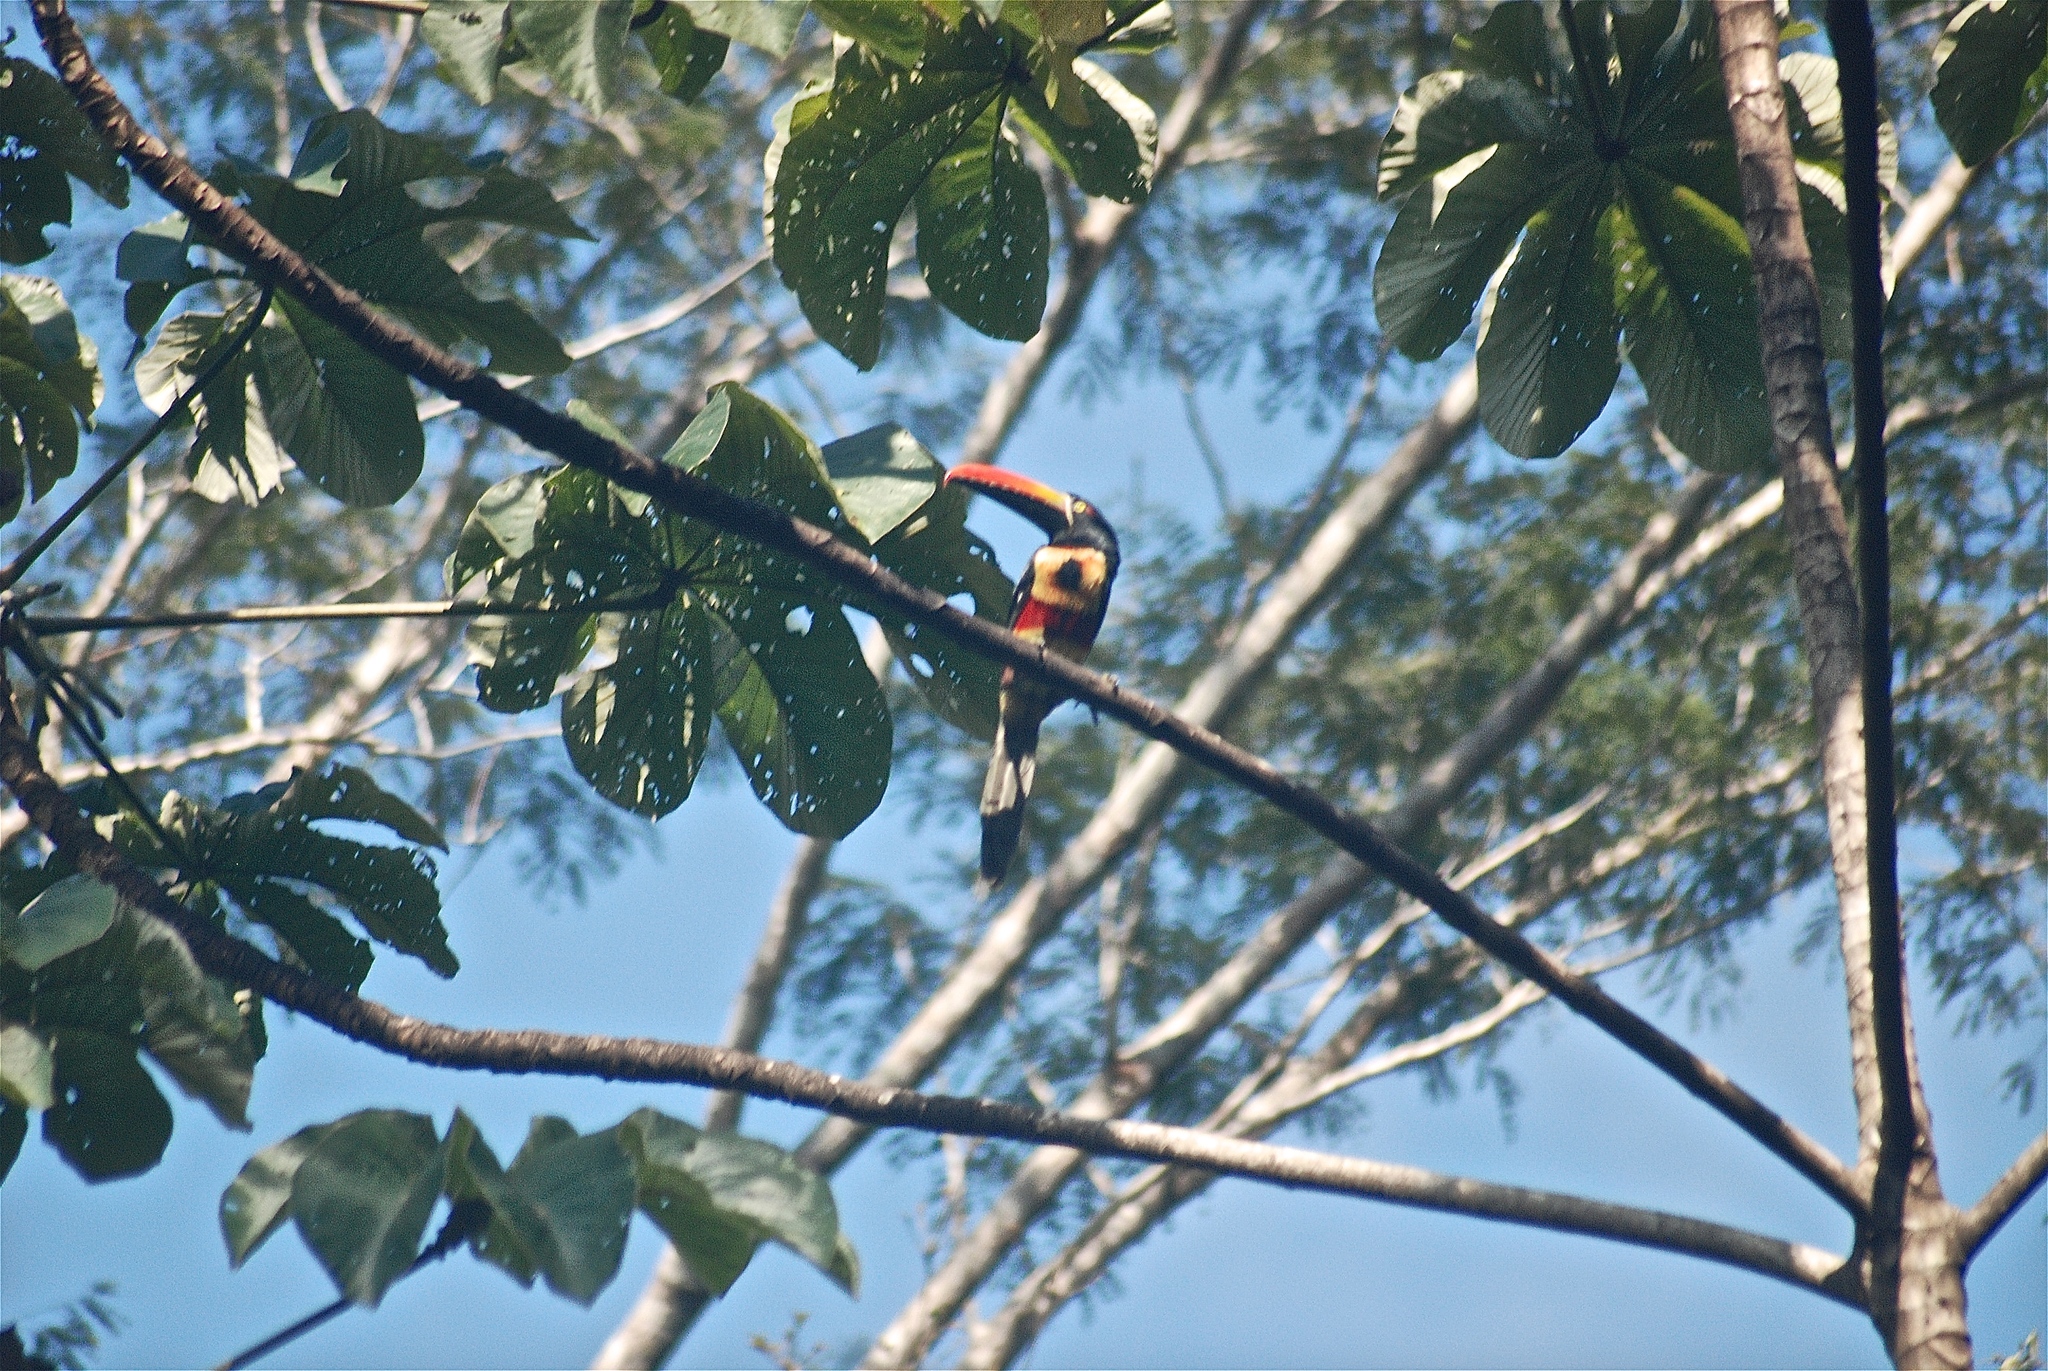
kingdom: Animalia
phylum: Chordata
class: Aves
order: Piciformes
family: Ramphastidae
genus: Pteroglossus
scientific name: Pteroglossus frantzii
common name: Fiery-billed aracari
